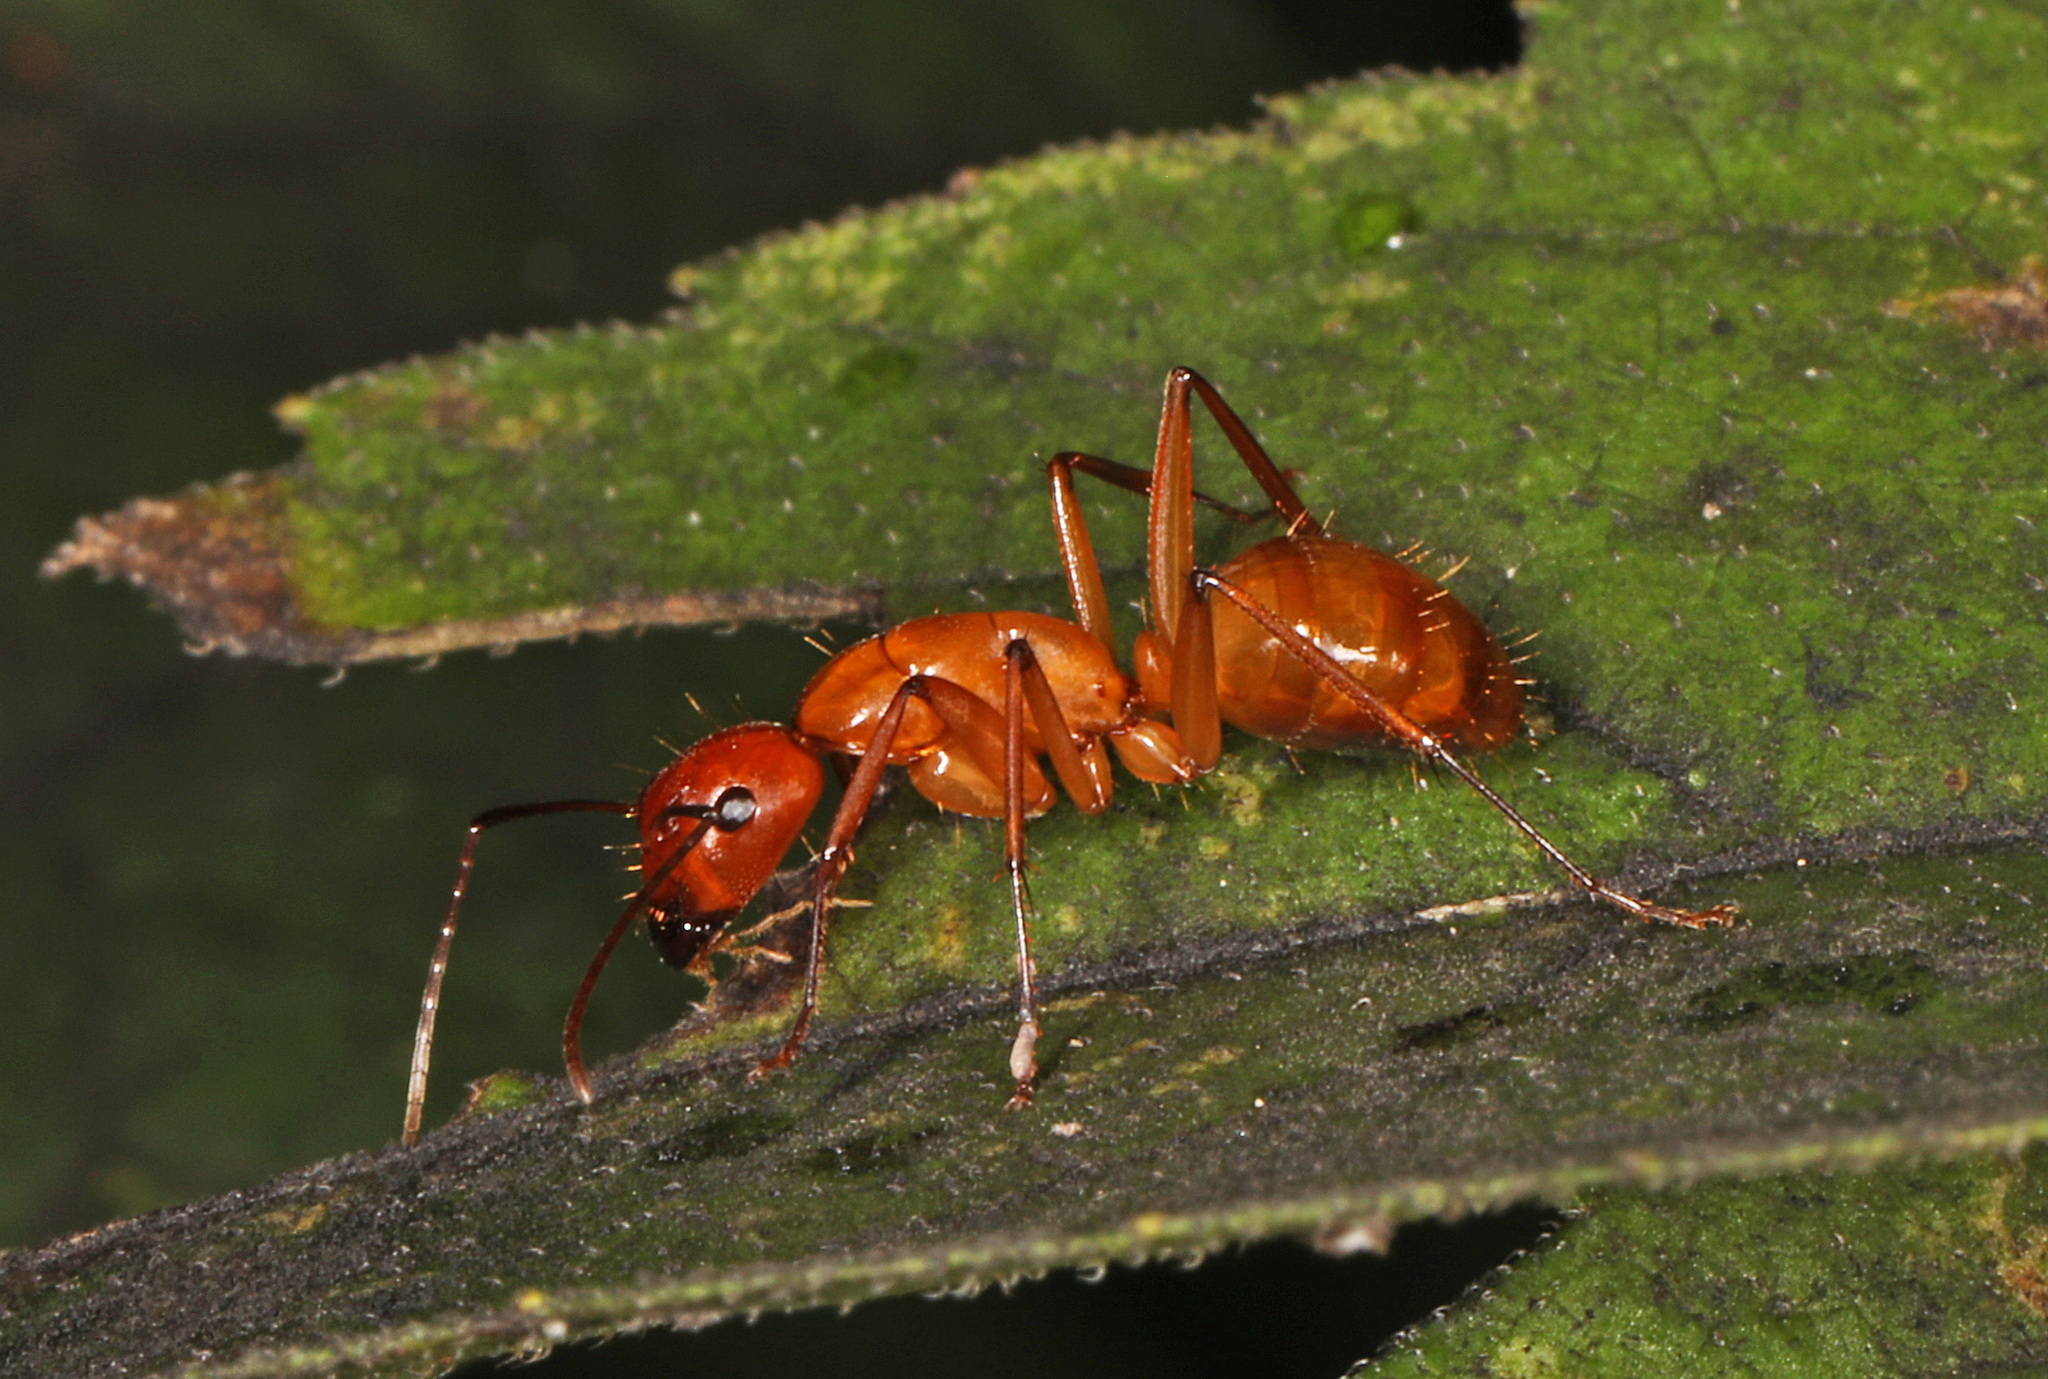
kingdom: Animalia
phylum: Arthropoda
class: Insecta
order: Hymenoptera
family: Formicidae
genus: Camponotus
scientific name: Camponotus castaneus
